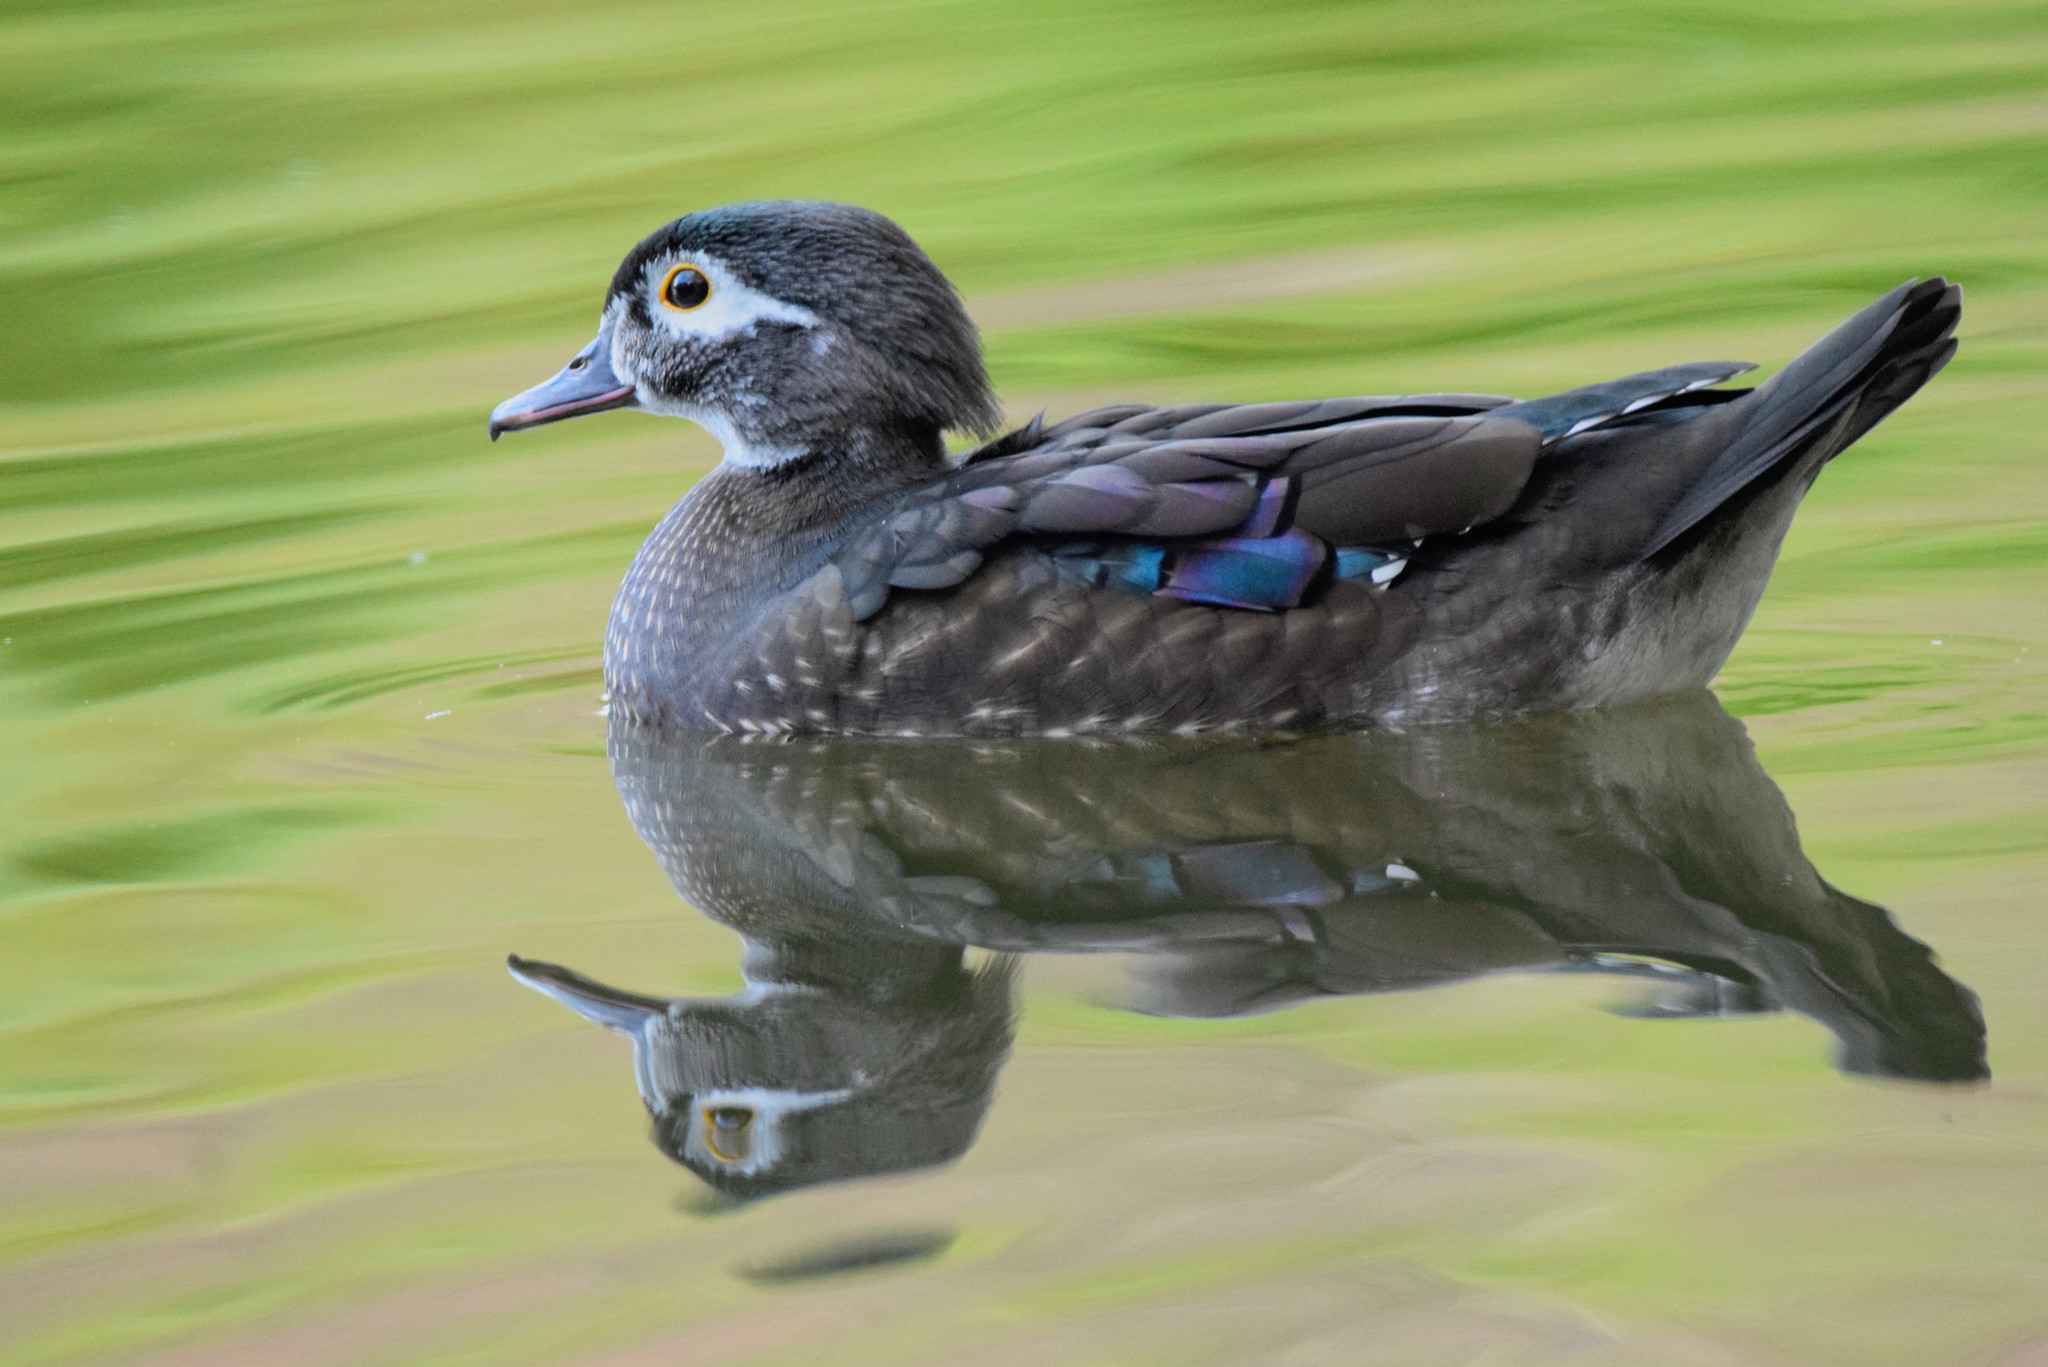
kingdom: Animalia
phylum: Chordata
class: Aves
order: Anseriformes
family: Anatidae
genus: Aix
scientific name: Aix sponsa
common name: Wood duck
